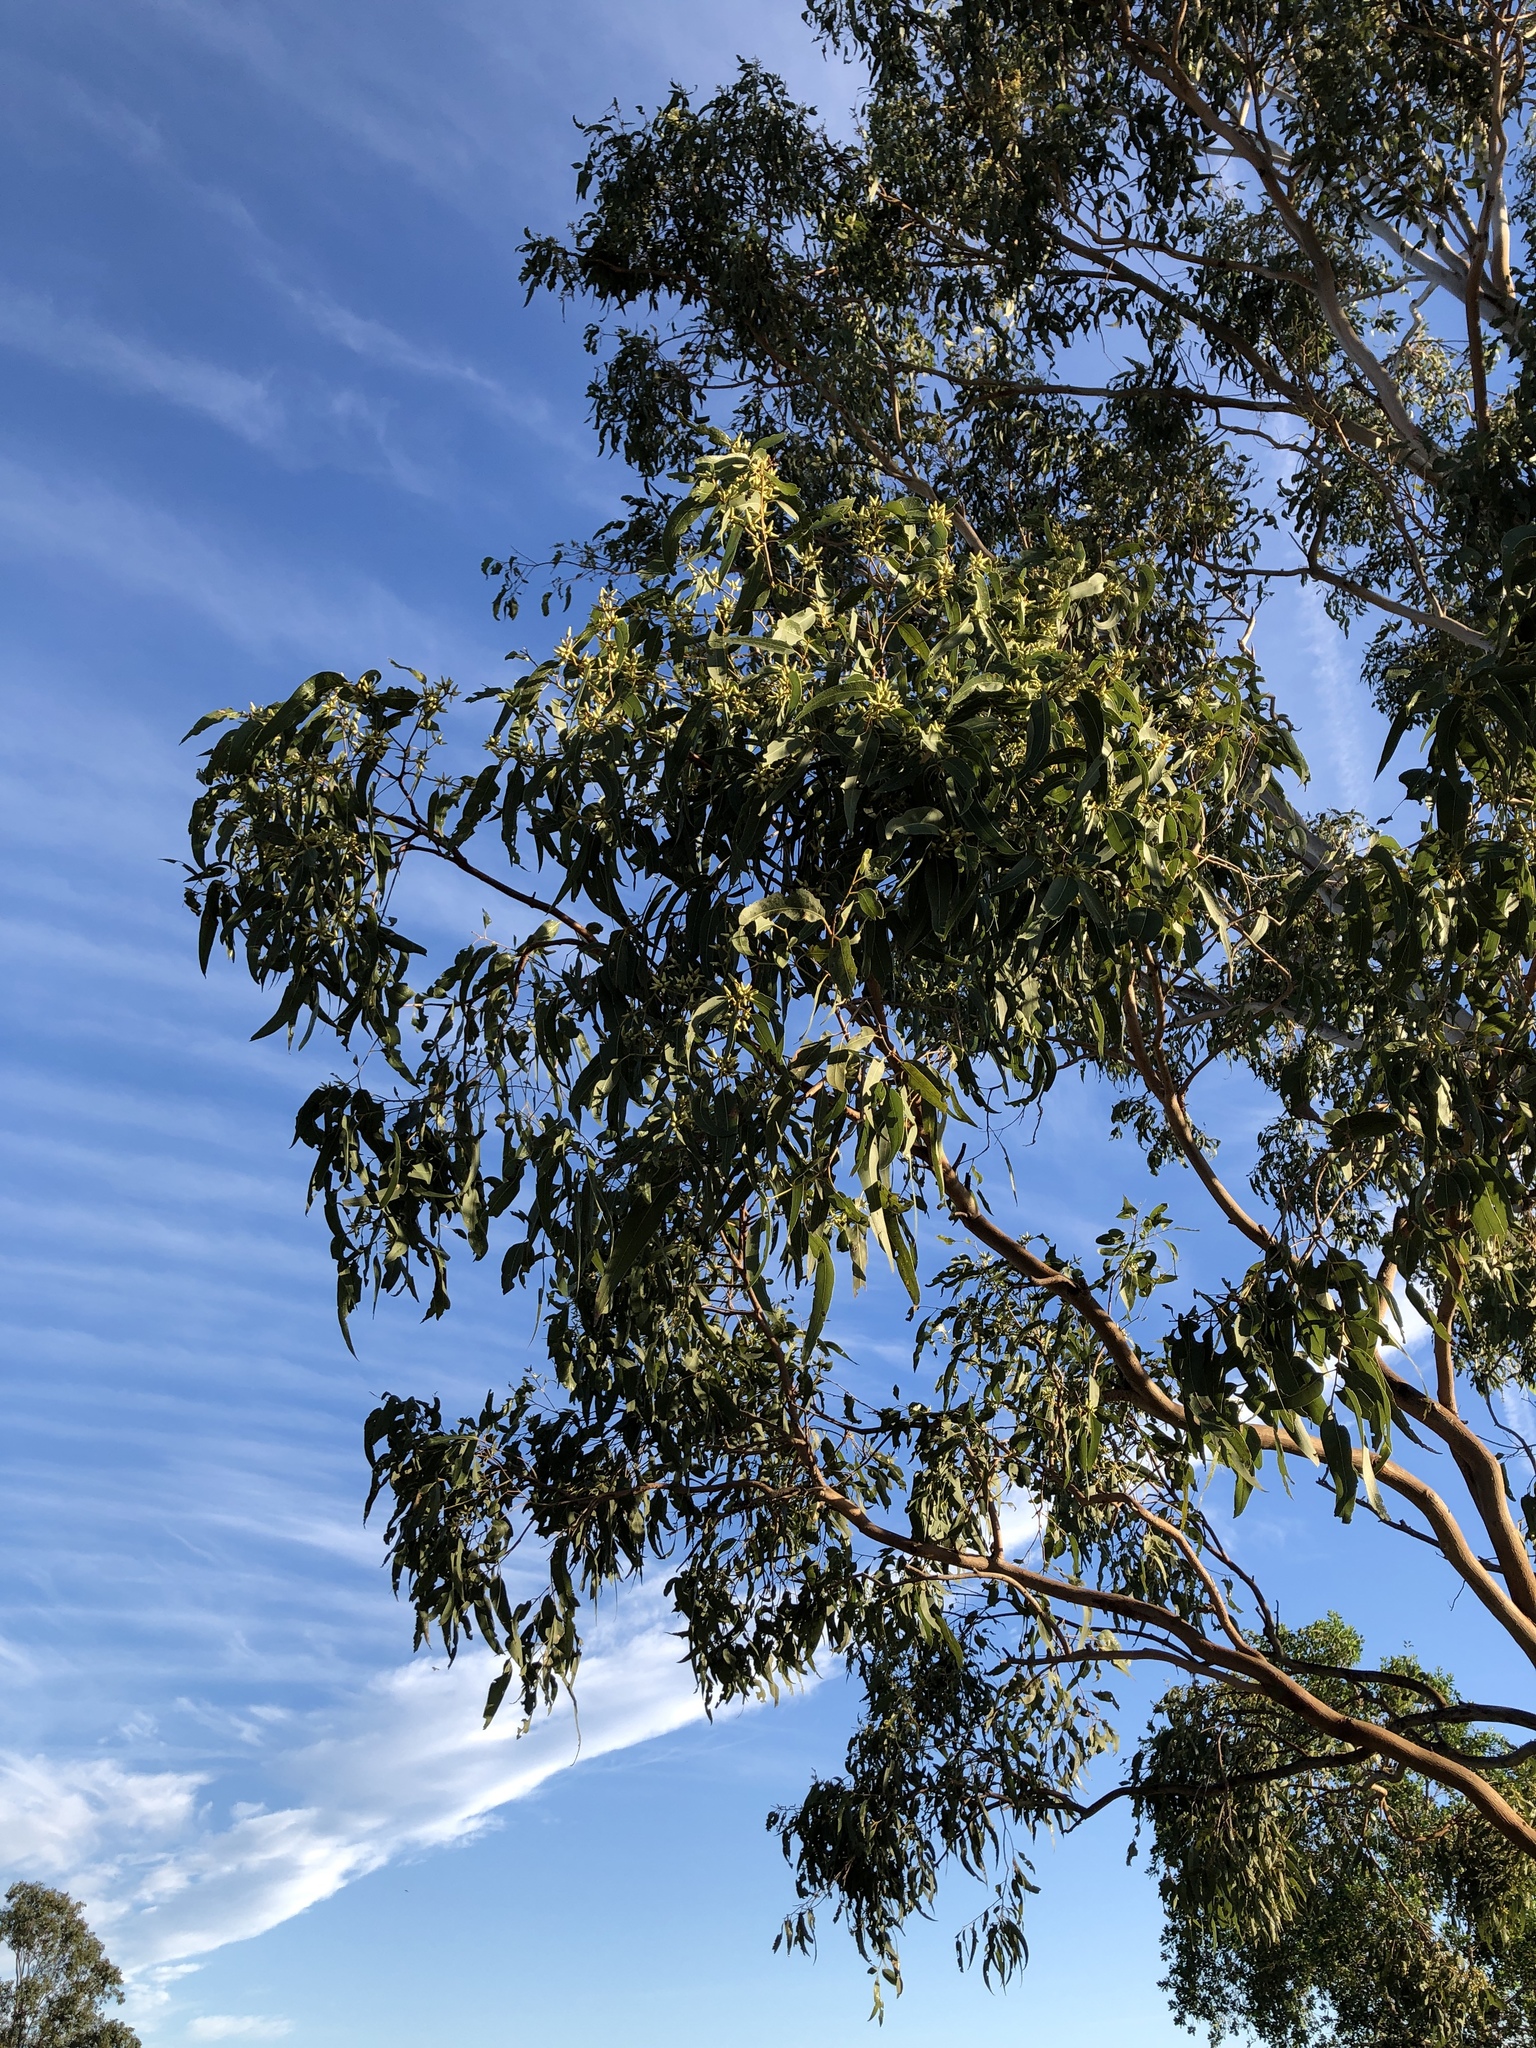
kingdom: Plantae
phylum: Tracheophyta
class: Magnoliopsida
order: Myrtales
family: Myrtaceae
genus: Eucalyptus
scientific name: Eucalyptus tereticornis
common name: Forest redgum
